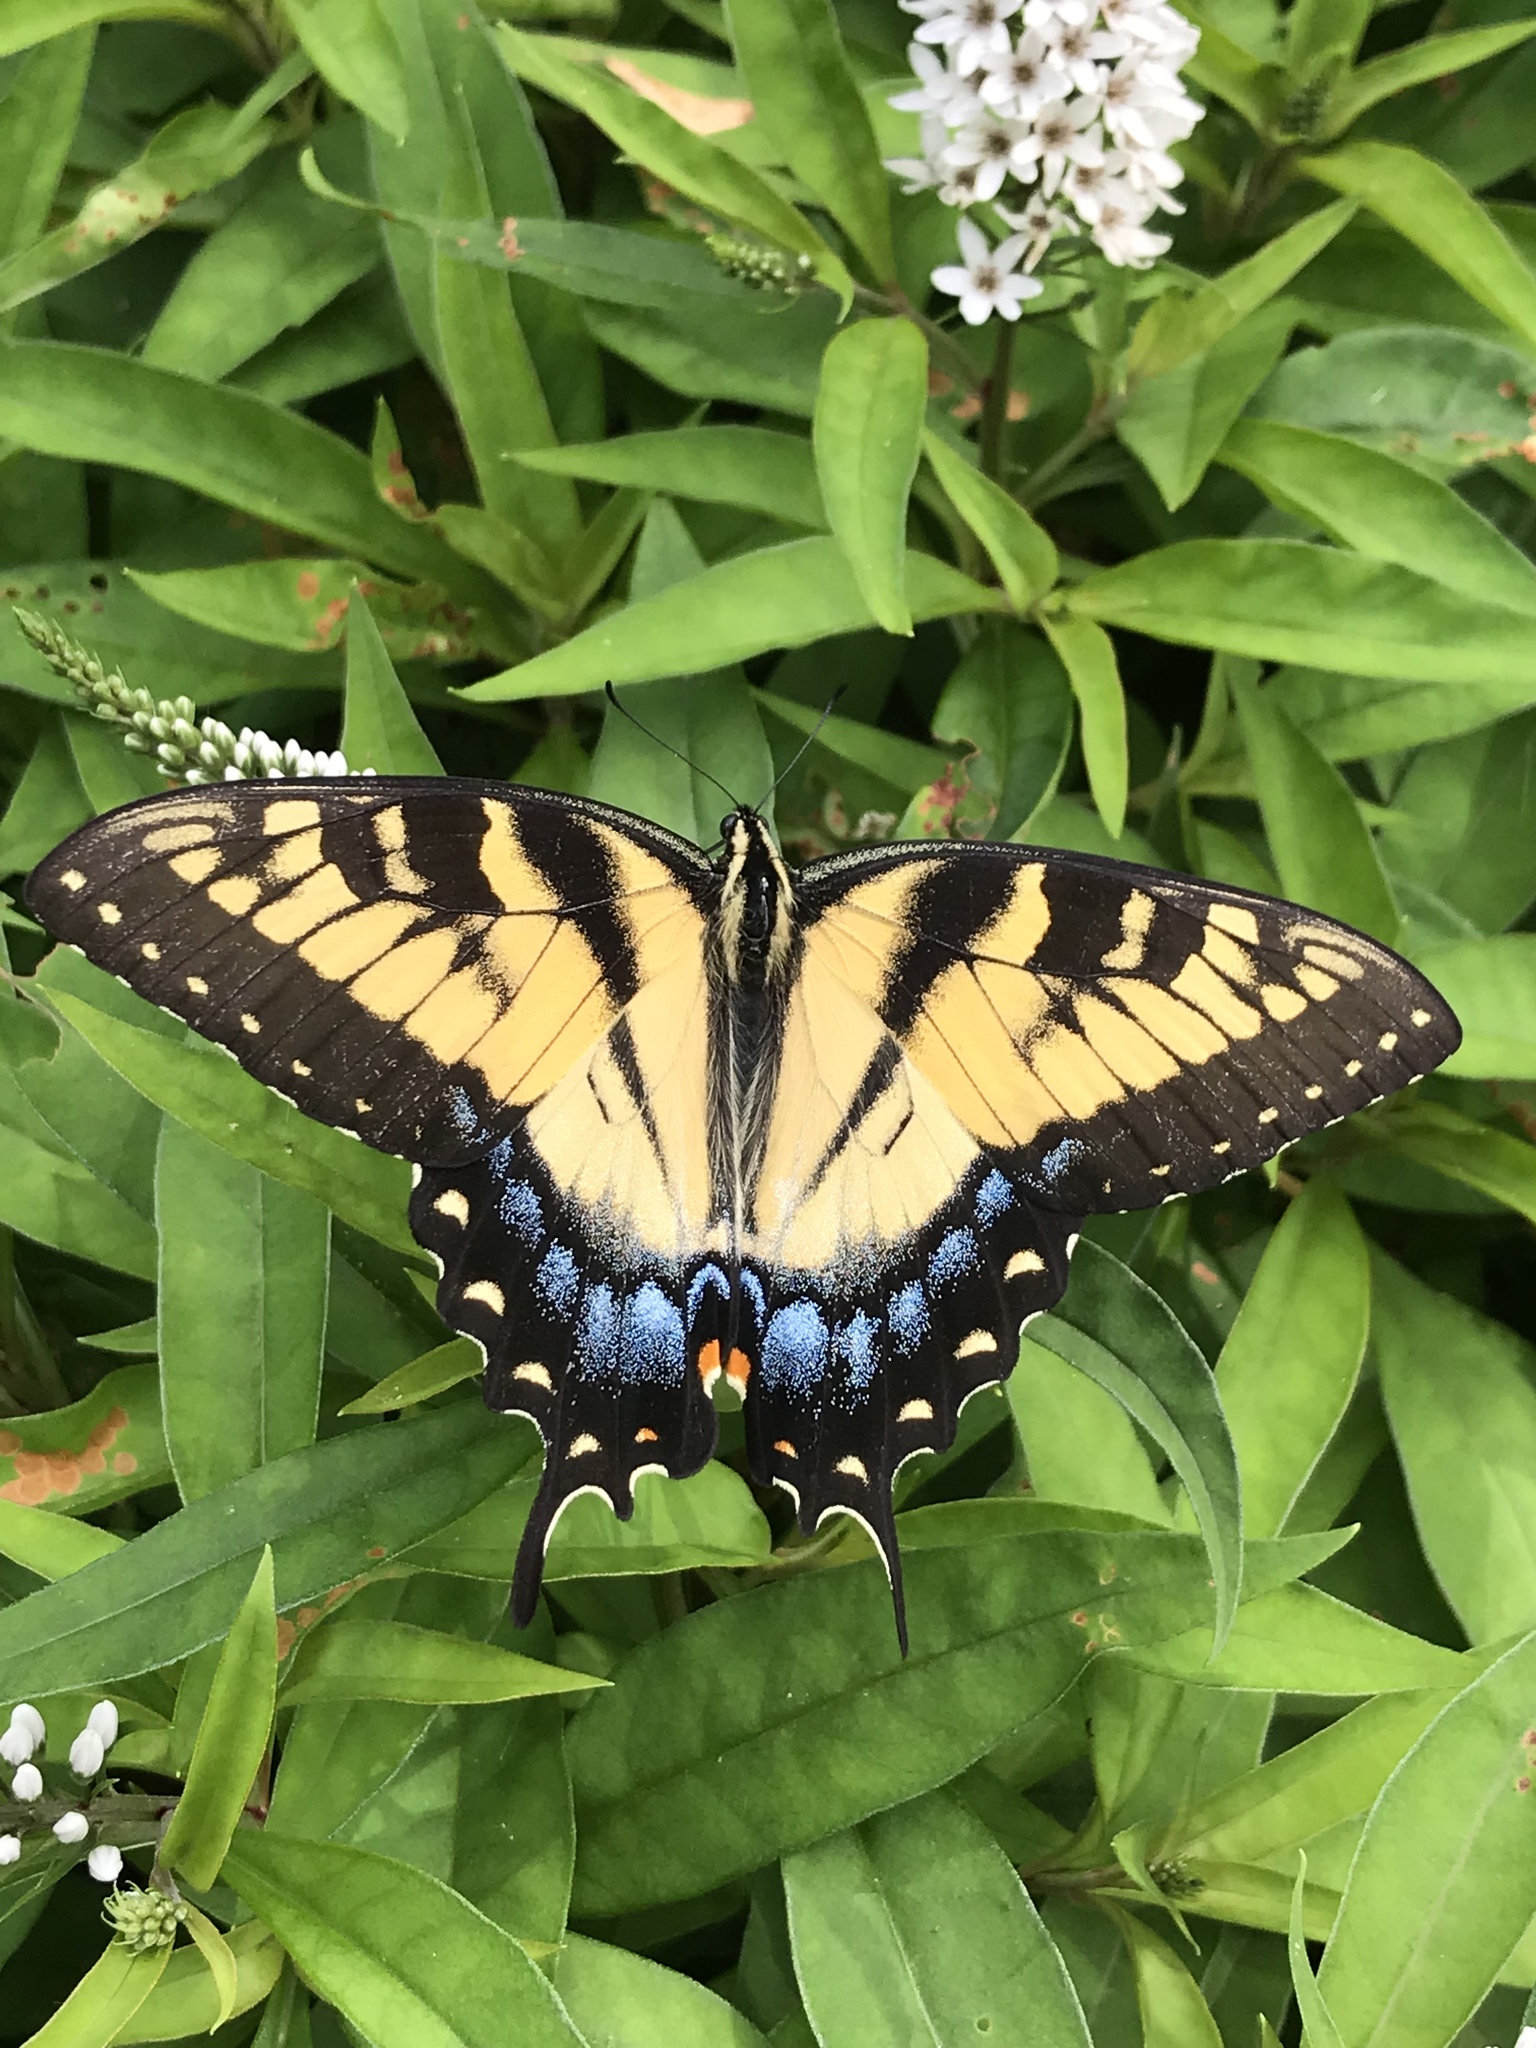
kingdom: Animalia
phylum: Arthropoda
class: Insecta
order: Lepidoptera
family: Papilionidae
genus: Papilio
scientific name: Papilio glaucus
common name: Tiger swallowtail
